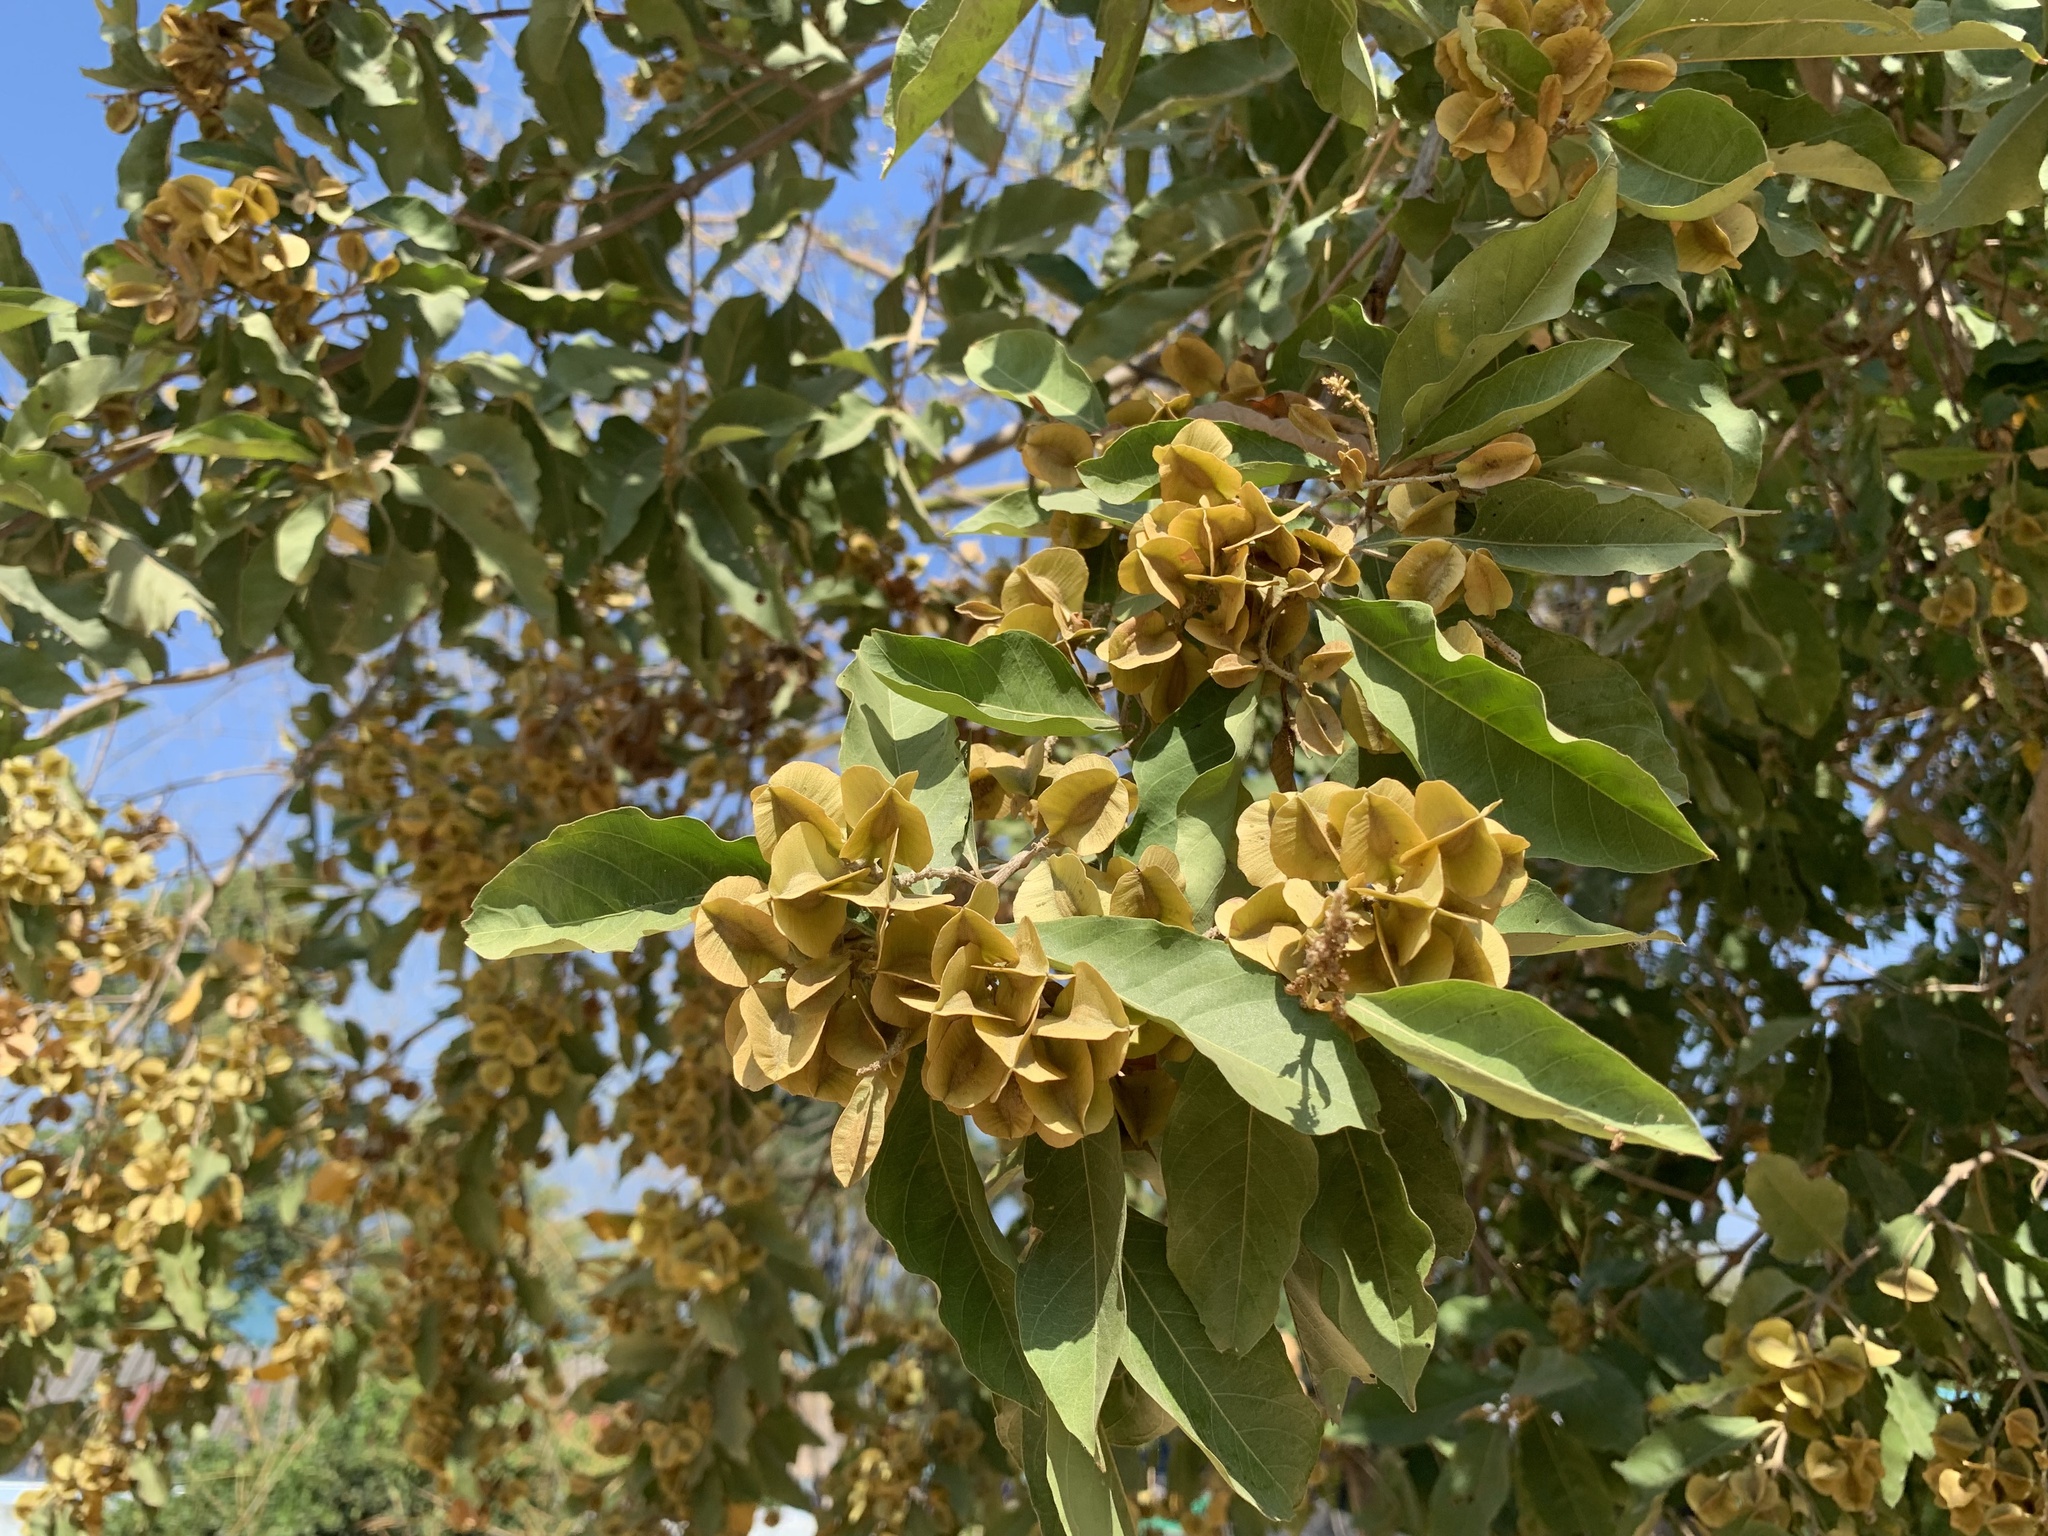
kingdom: Plantae
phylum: Tracheophyta
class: Magnoliopsida
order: Myrtales
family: Combretaceae
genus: Terminalia
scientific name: Terminalia arjuna
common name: Arjun
